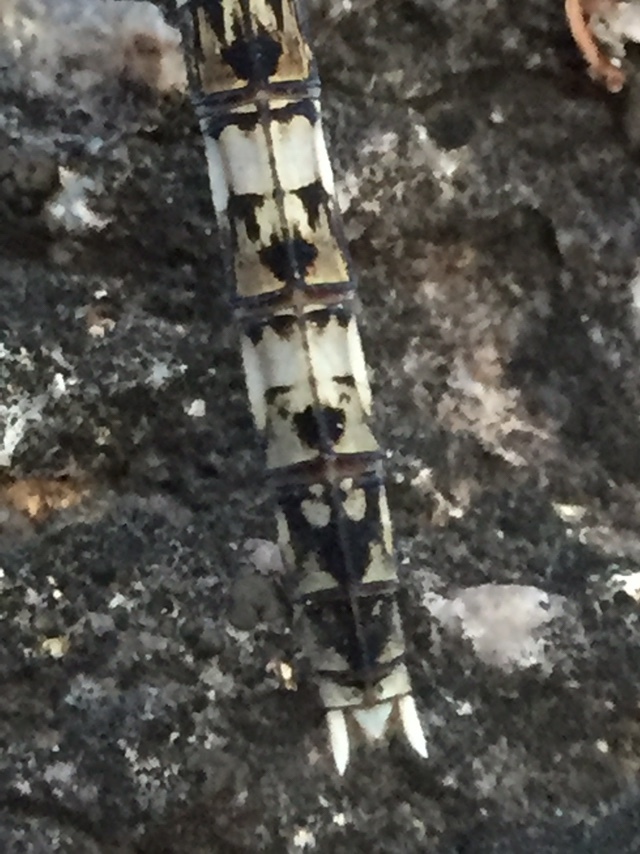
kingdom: Animalia
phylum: Arthropoda
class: Insecta
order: Odonata
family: Libellulidae
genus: Bradinopyga
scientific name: Bradinopyga geminata
